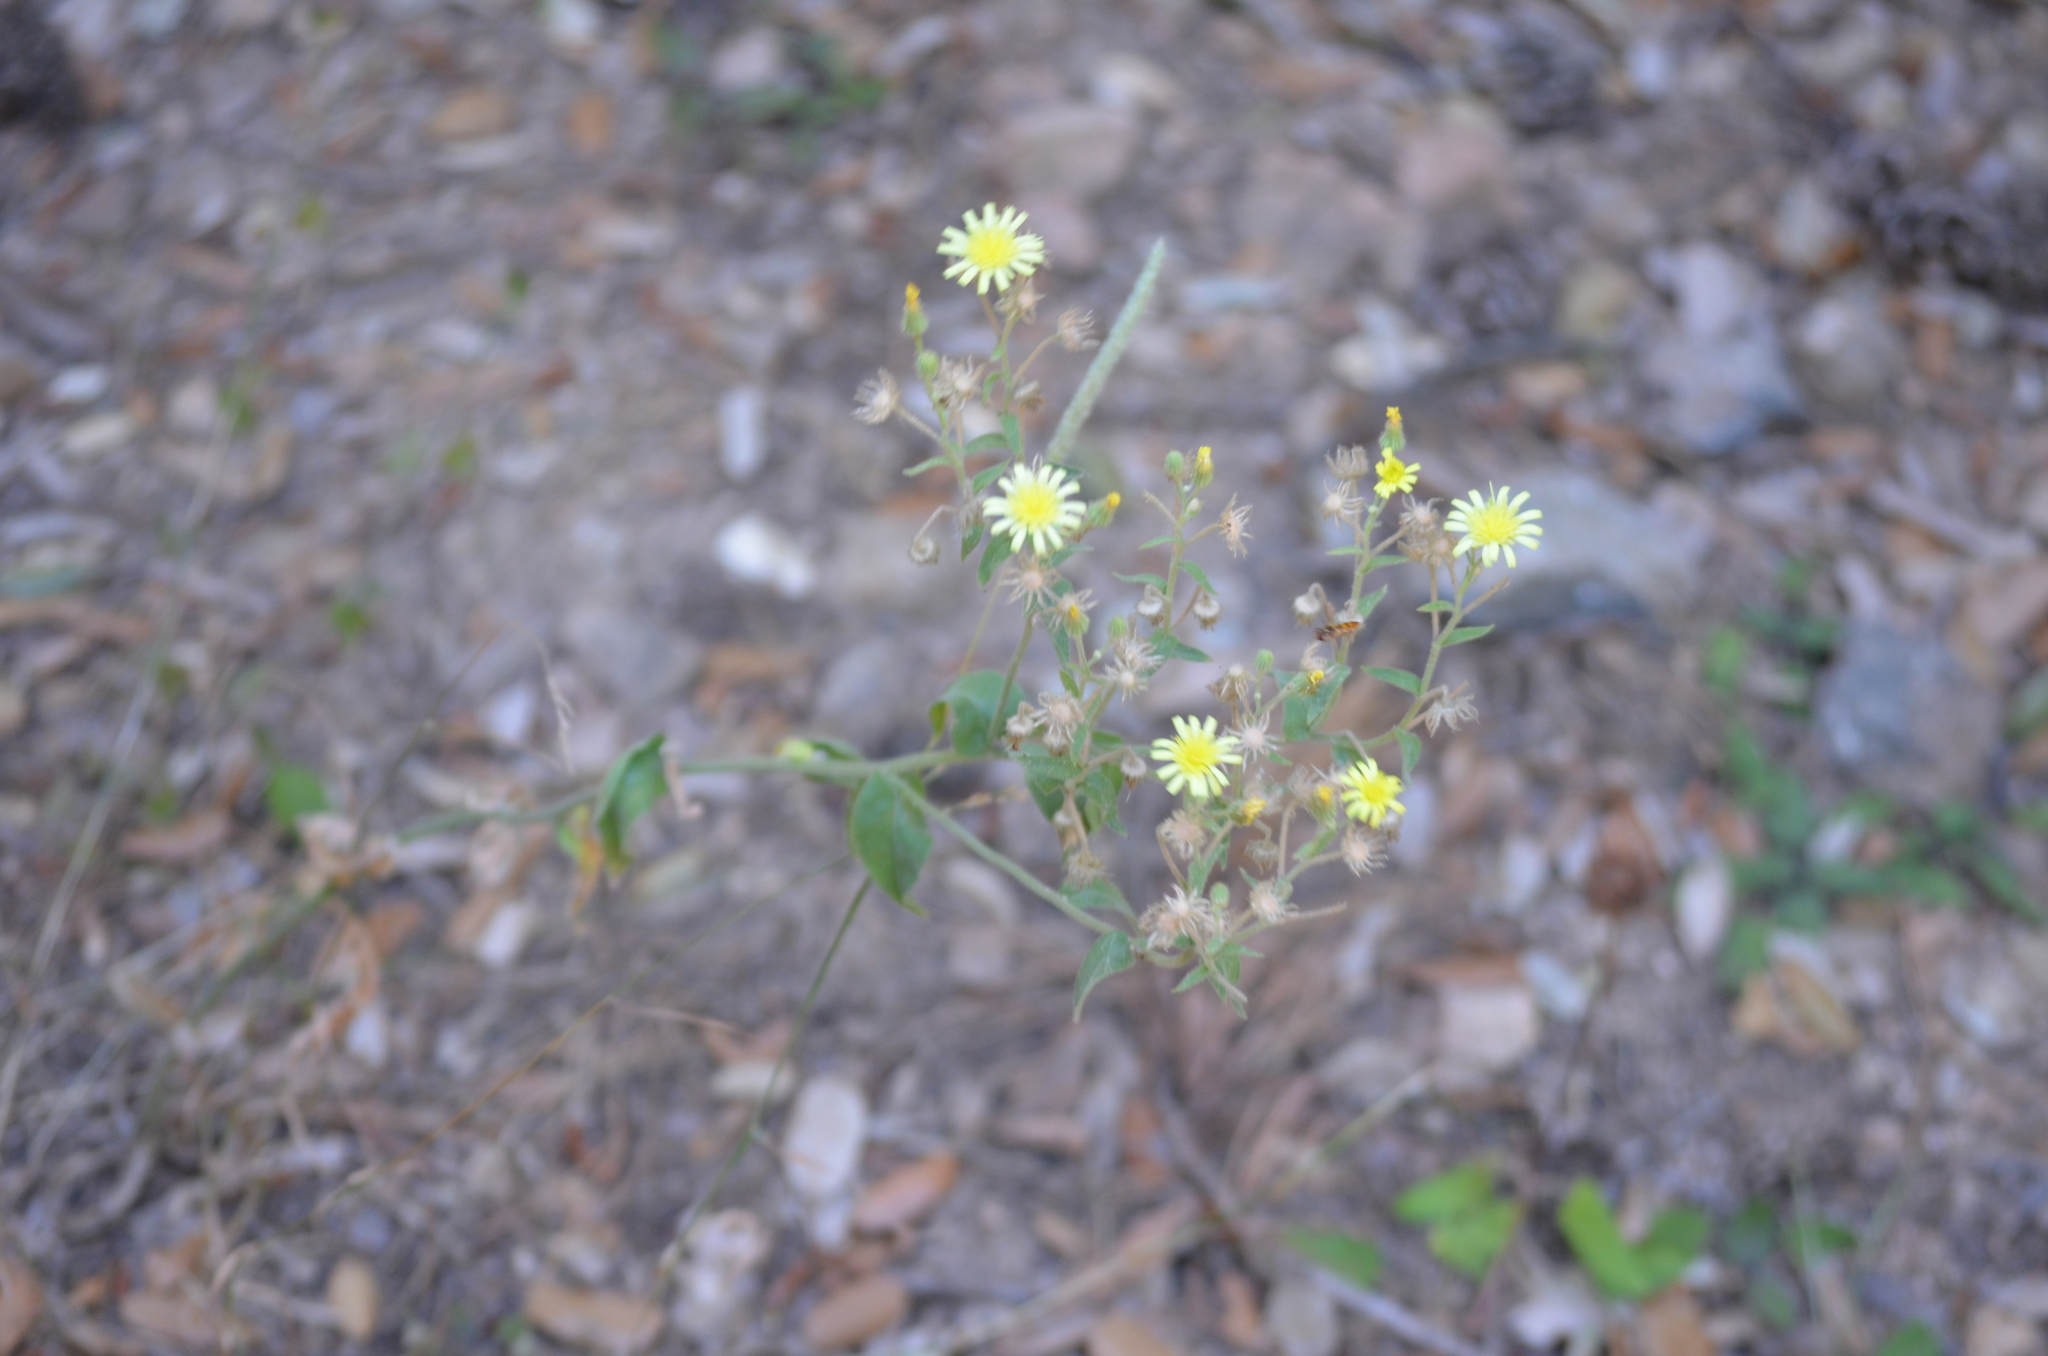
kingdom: Plantae
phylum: Tracheophyta
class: Magnoliopsida
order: Asterales
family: Asteraceae
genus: Andryala
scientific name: Andryala integrifolia
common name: Common andryala
